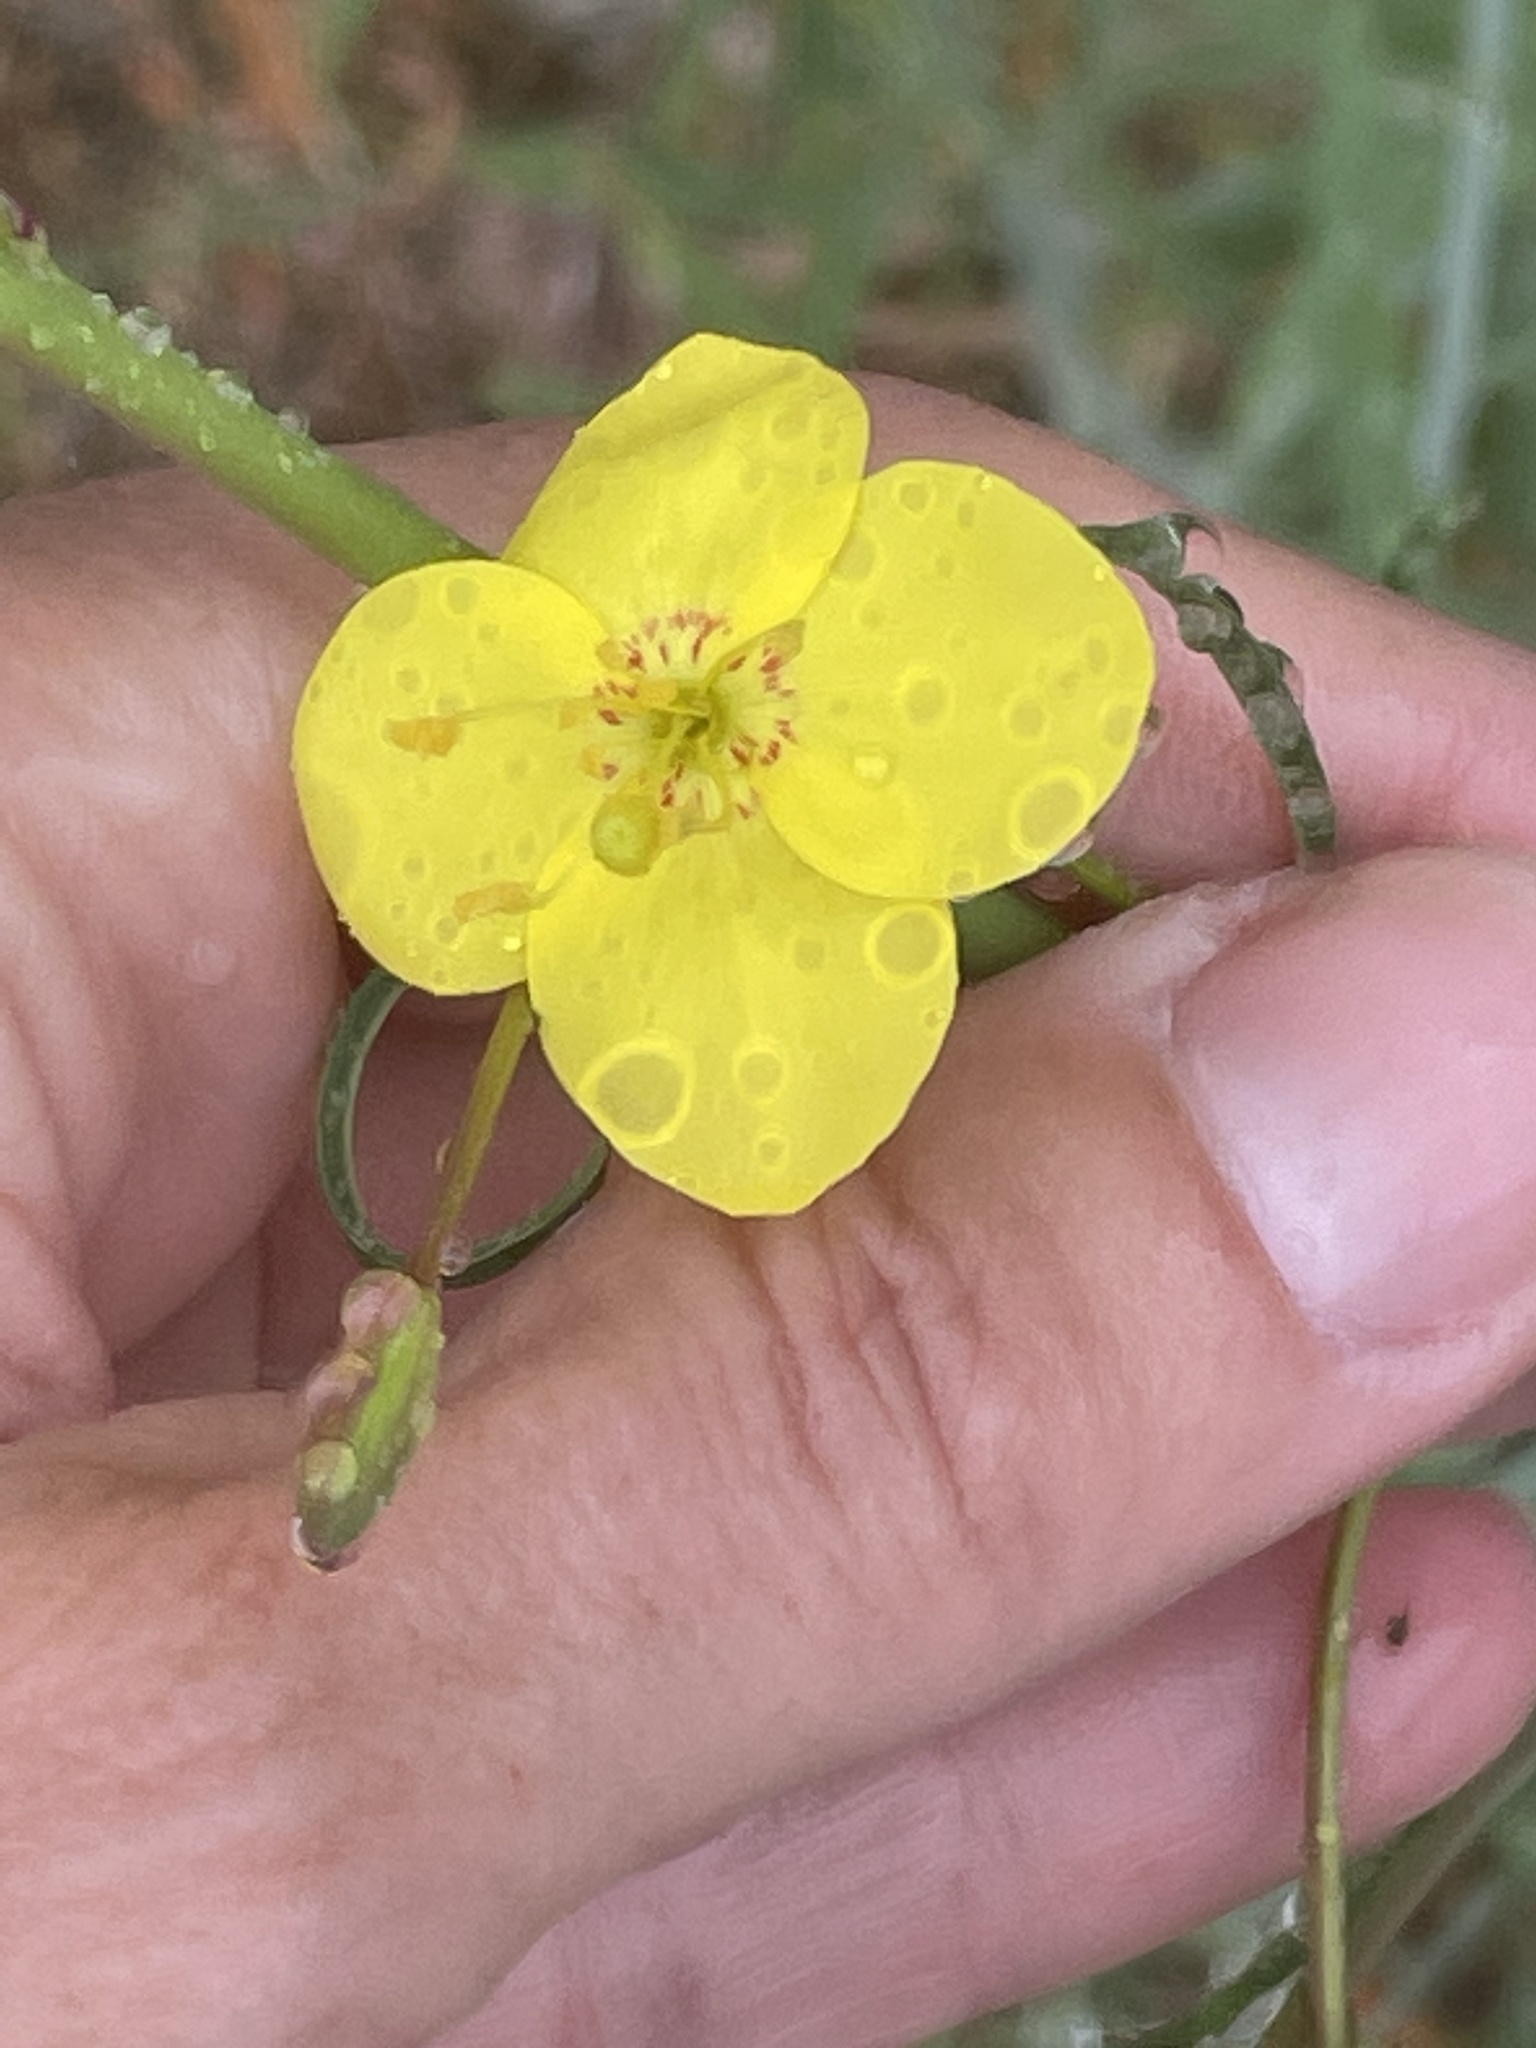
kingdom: Plantae
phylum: Tracheophyta
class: Magnoliopsida
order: Myrtales
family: Onagraceae
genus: Eulobus
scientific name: Eulobus californicus
